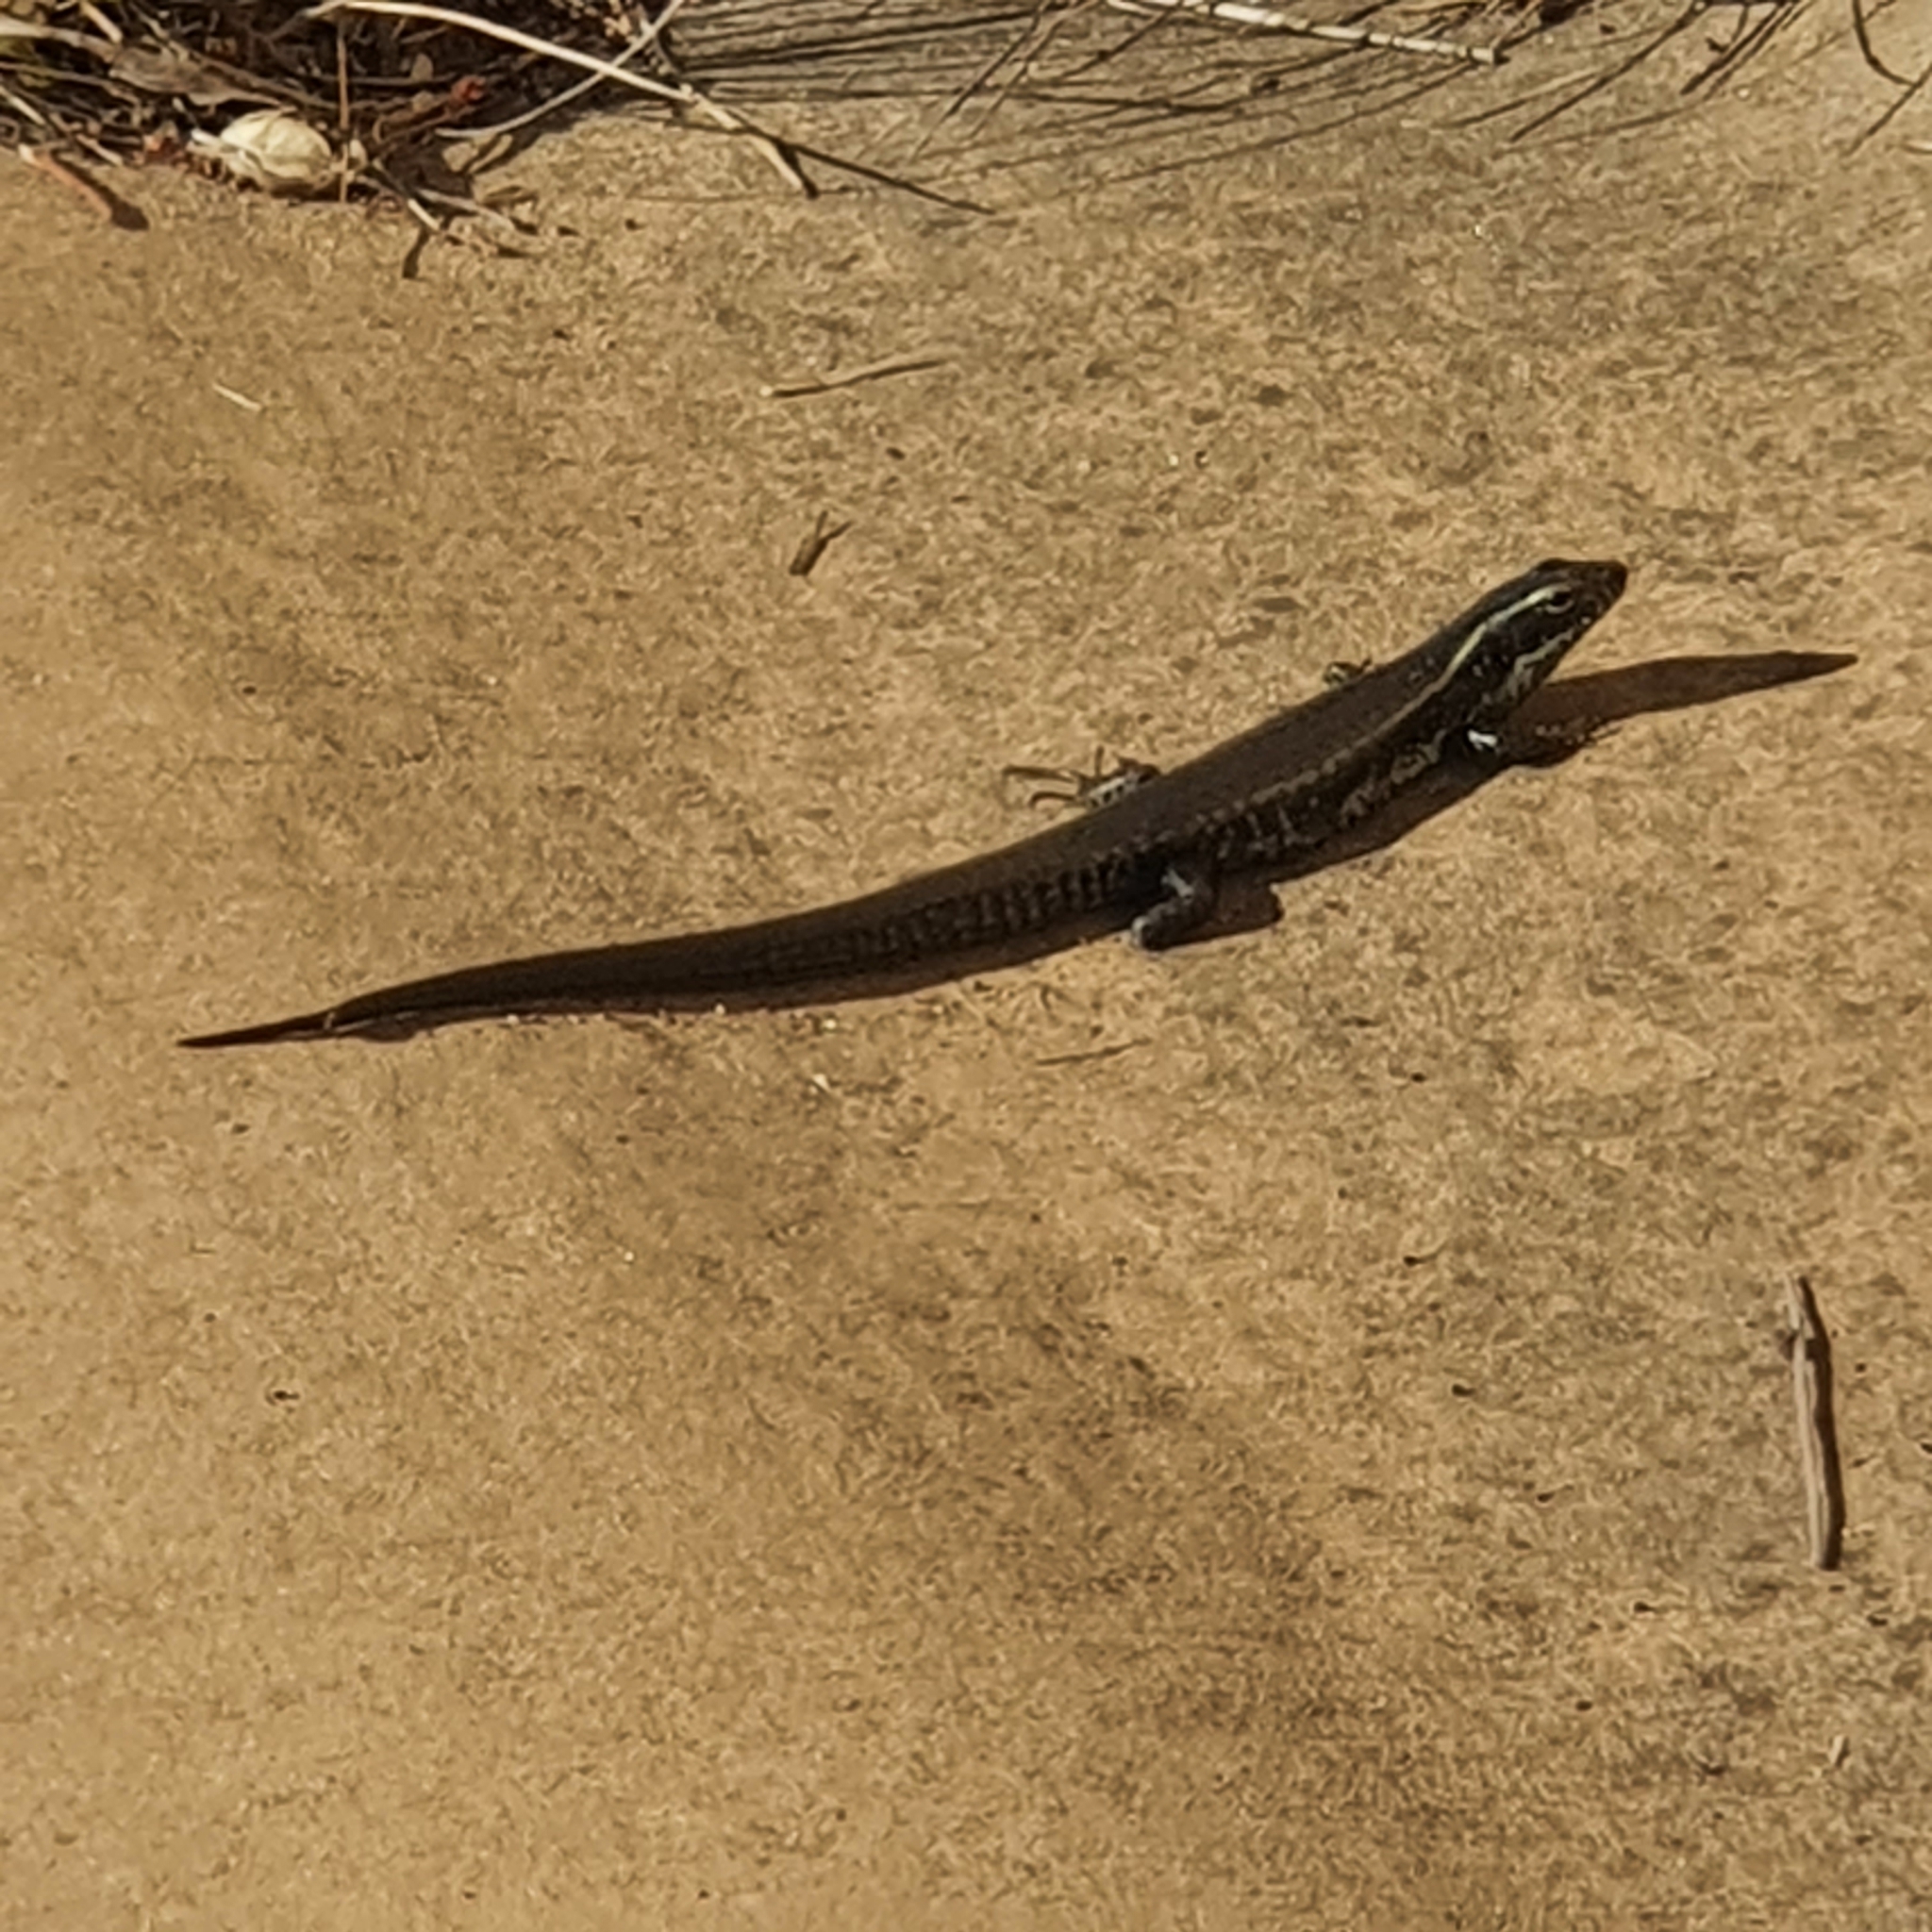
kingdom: Animalia
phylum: Chordata
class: Squamata
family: Scincidae
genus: Eulamprus
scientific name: Eulamprus quoyii
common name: Eastern water skink
